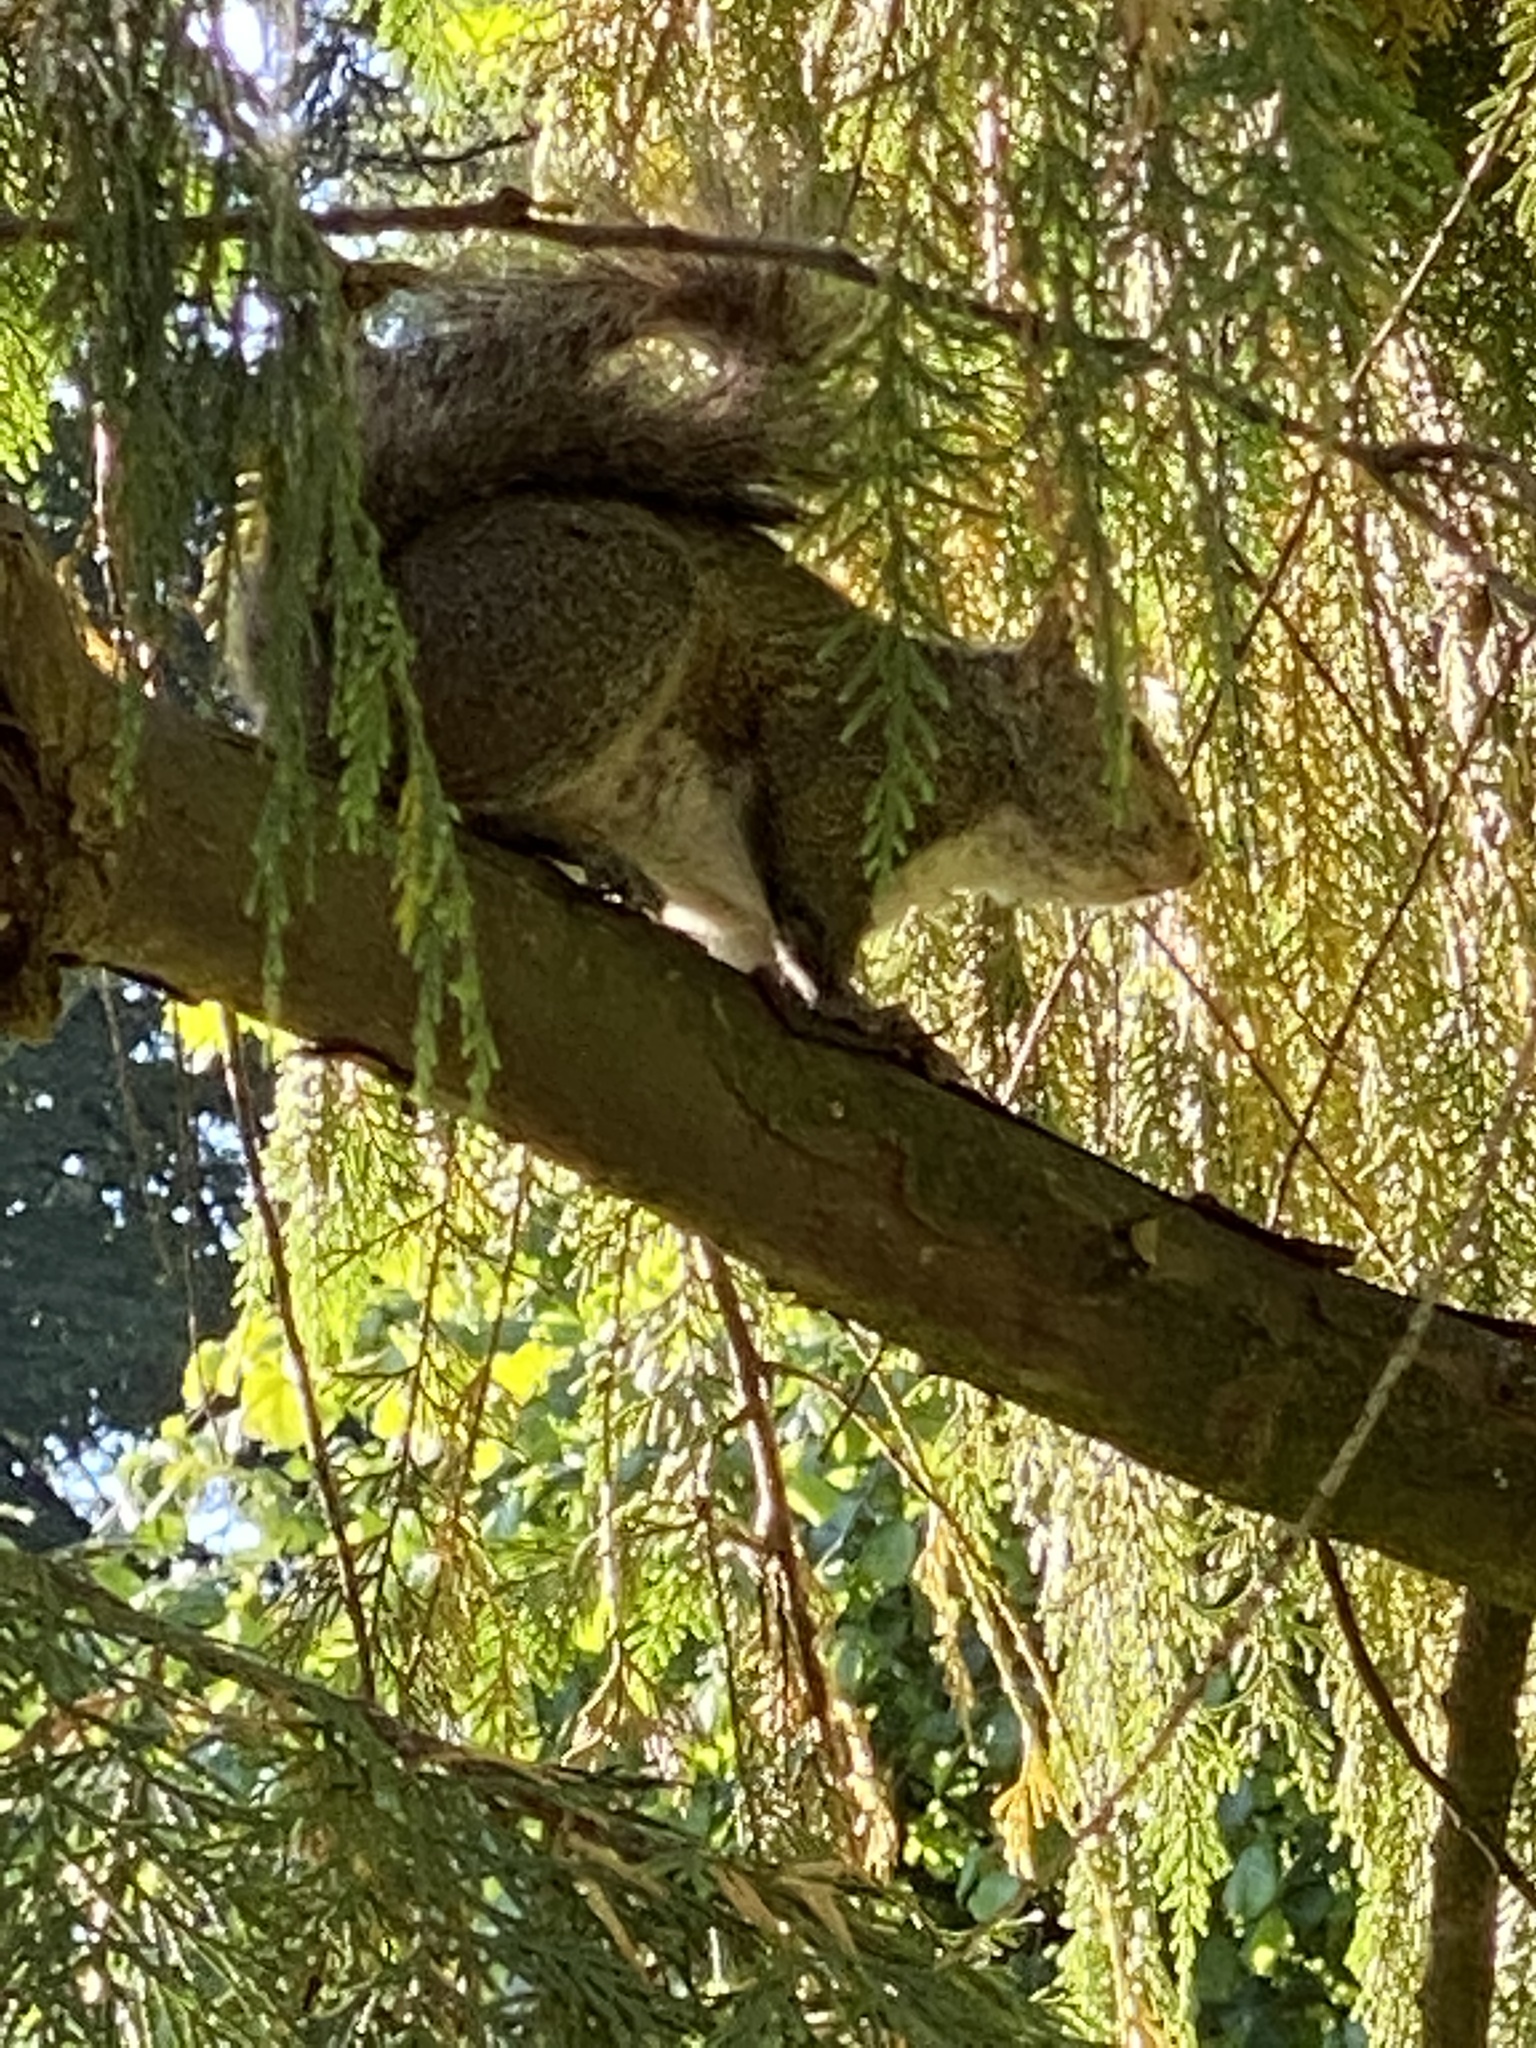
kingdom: Animalia
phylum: Chordata
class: Mammalia
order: Rodentia
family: Sciuridae
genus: Sciurus
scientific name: Sciurus carolinensis
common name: Eastern gray squirrel
